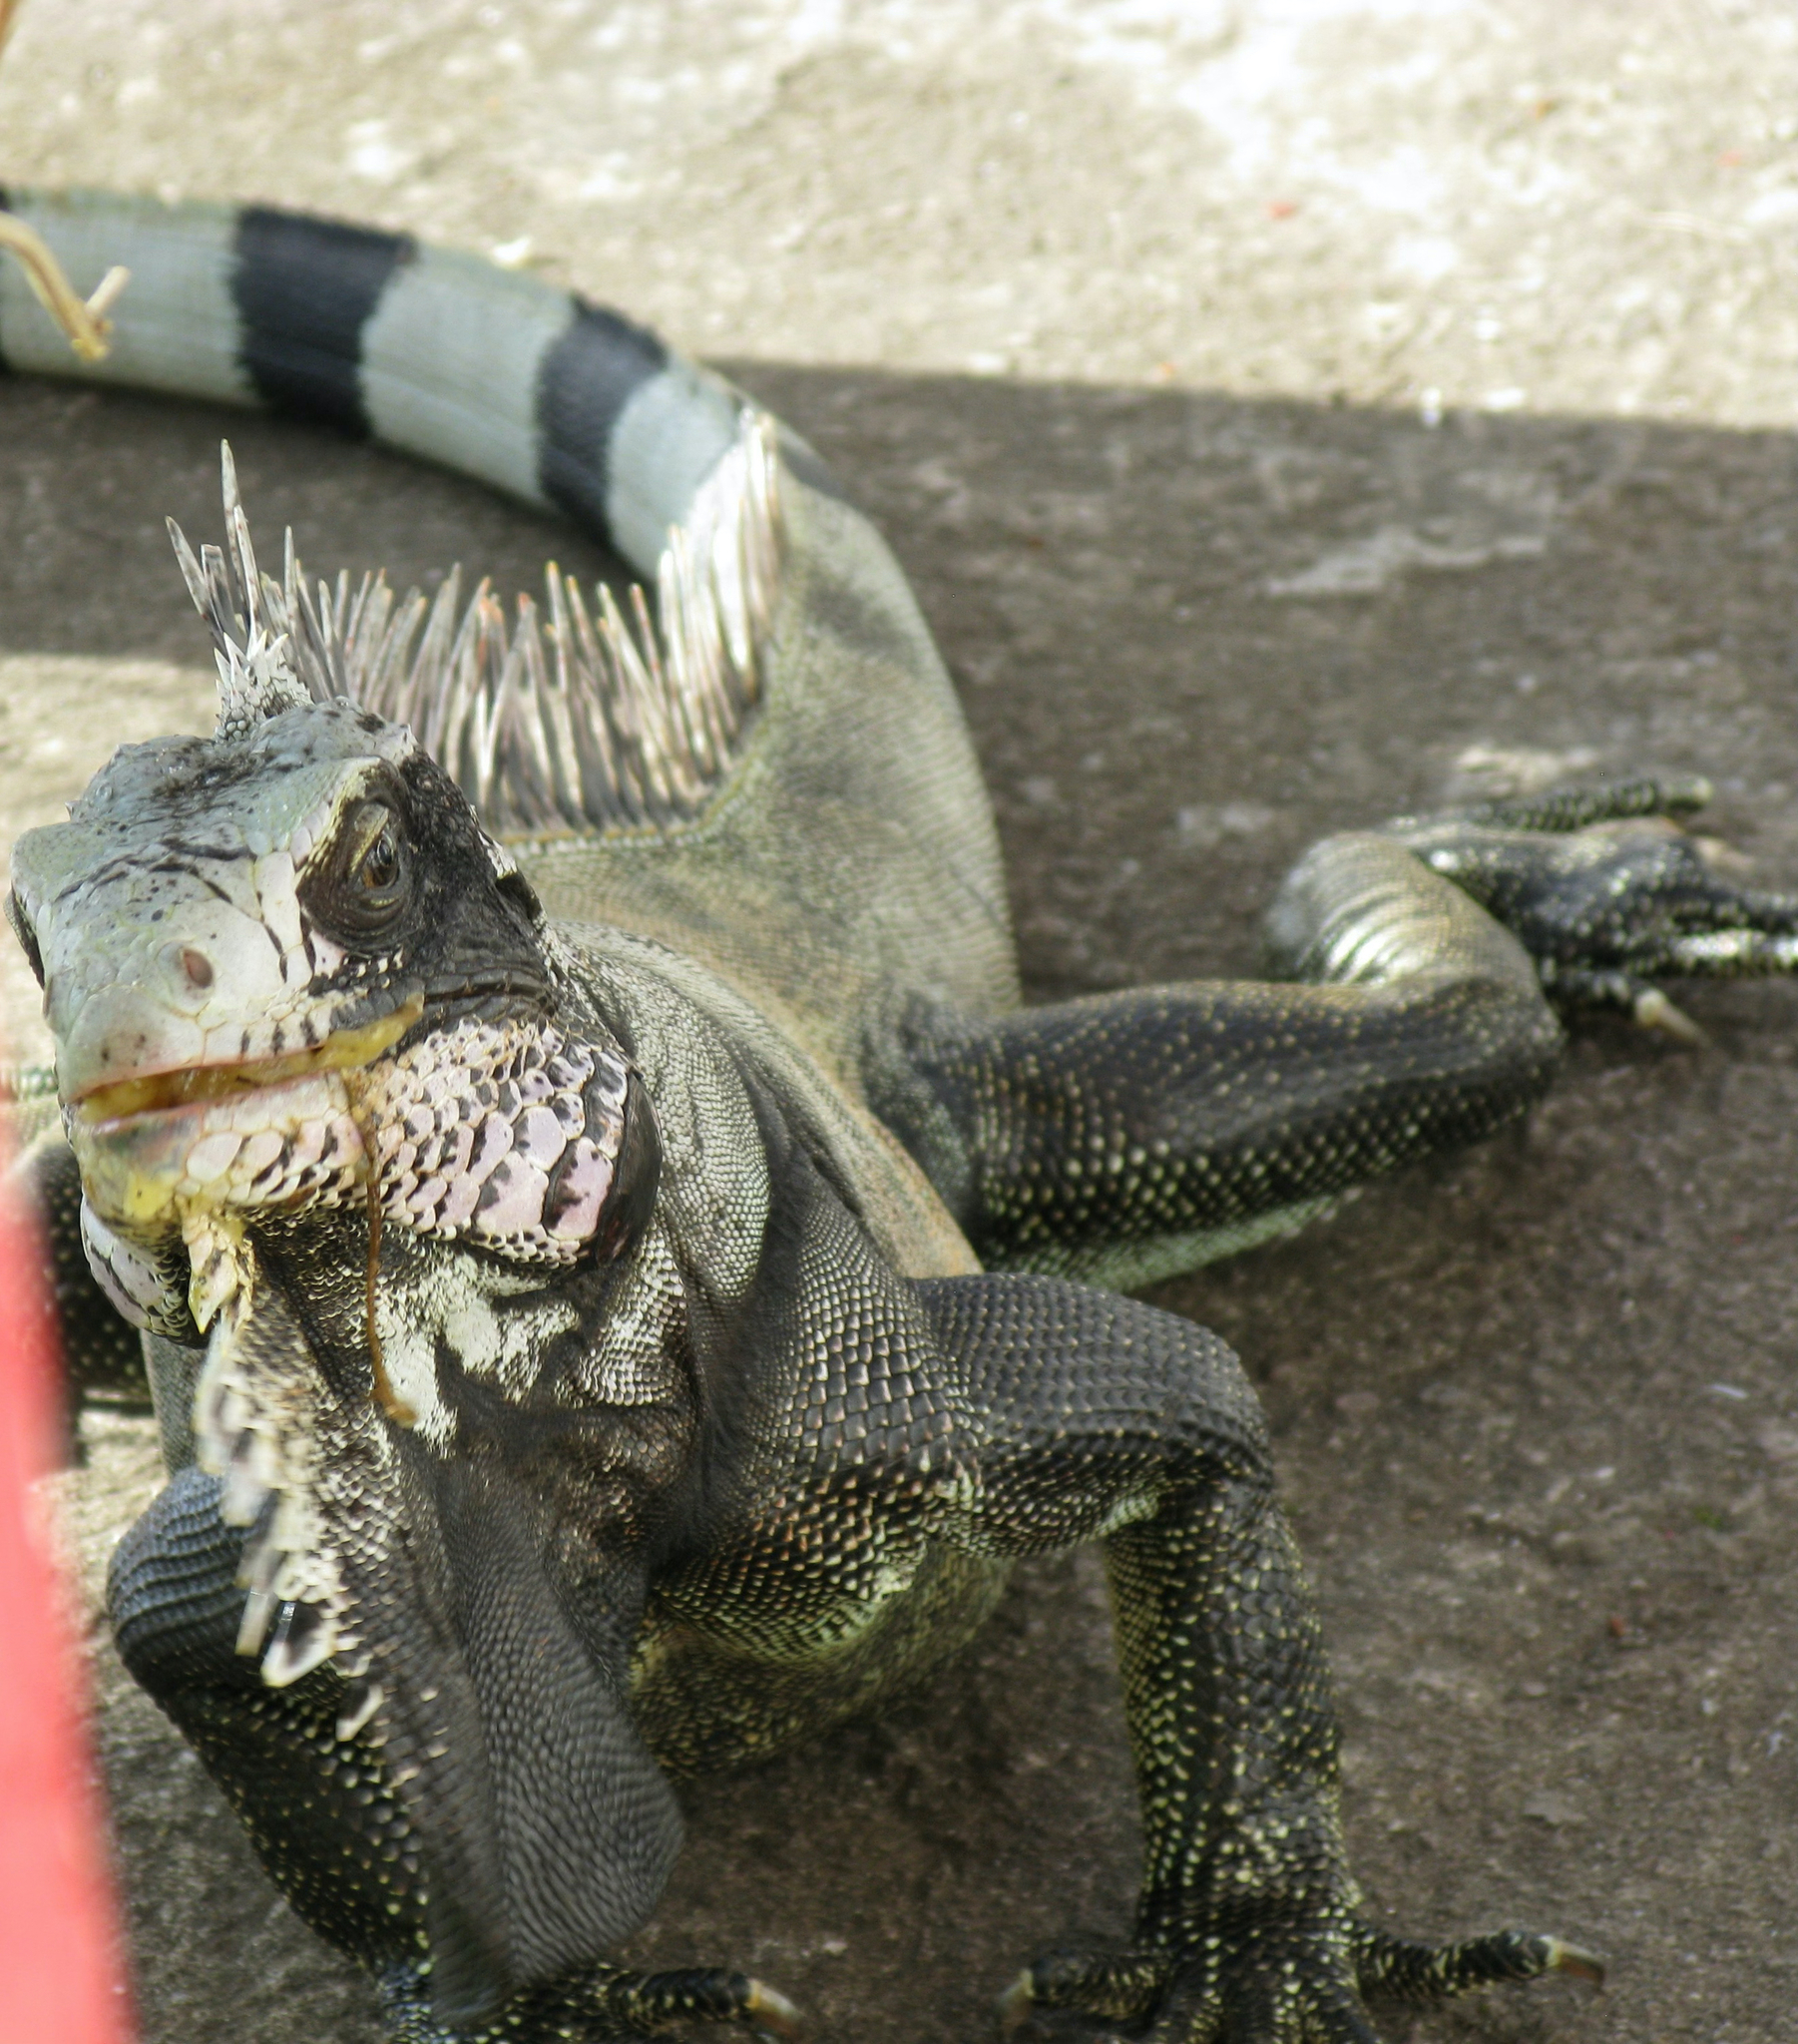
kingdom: Animalia
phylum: Chordata
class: Squamata
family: Iguanidae
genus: Iguana
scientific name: Iguana iguana
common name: Green iguana
